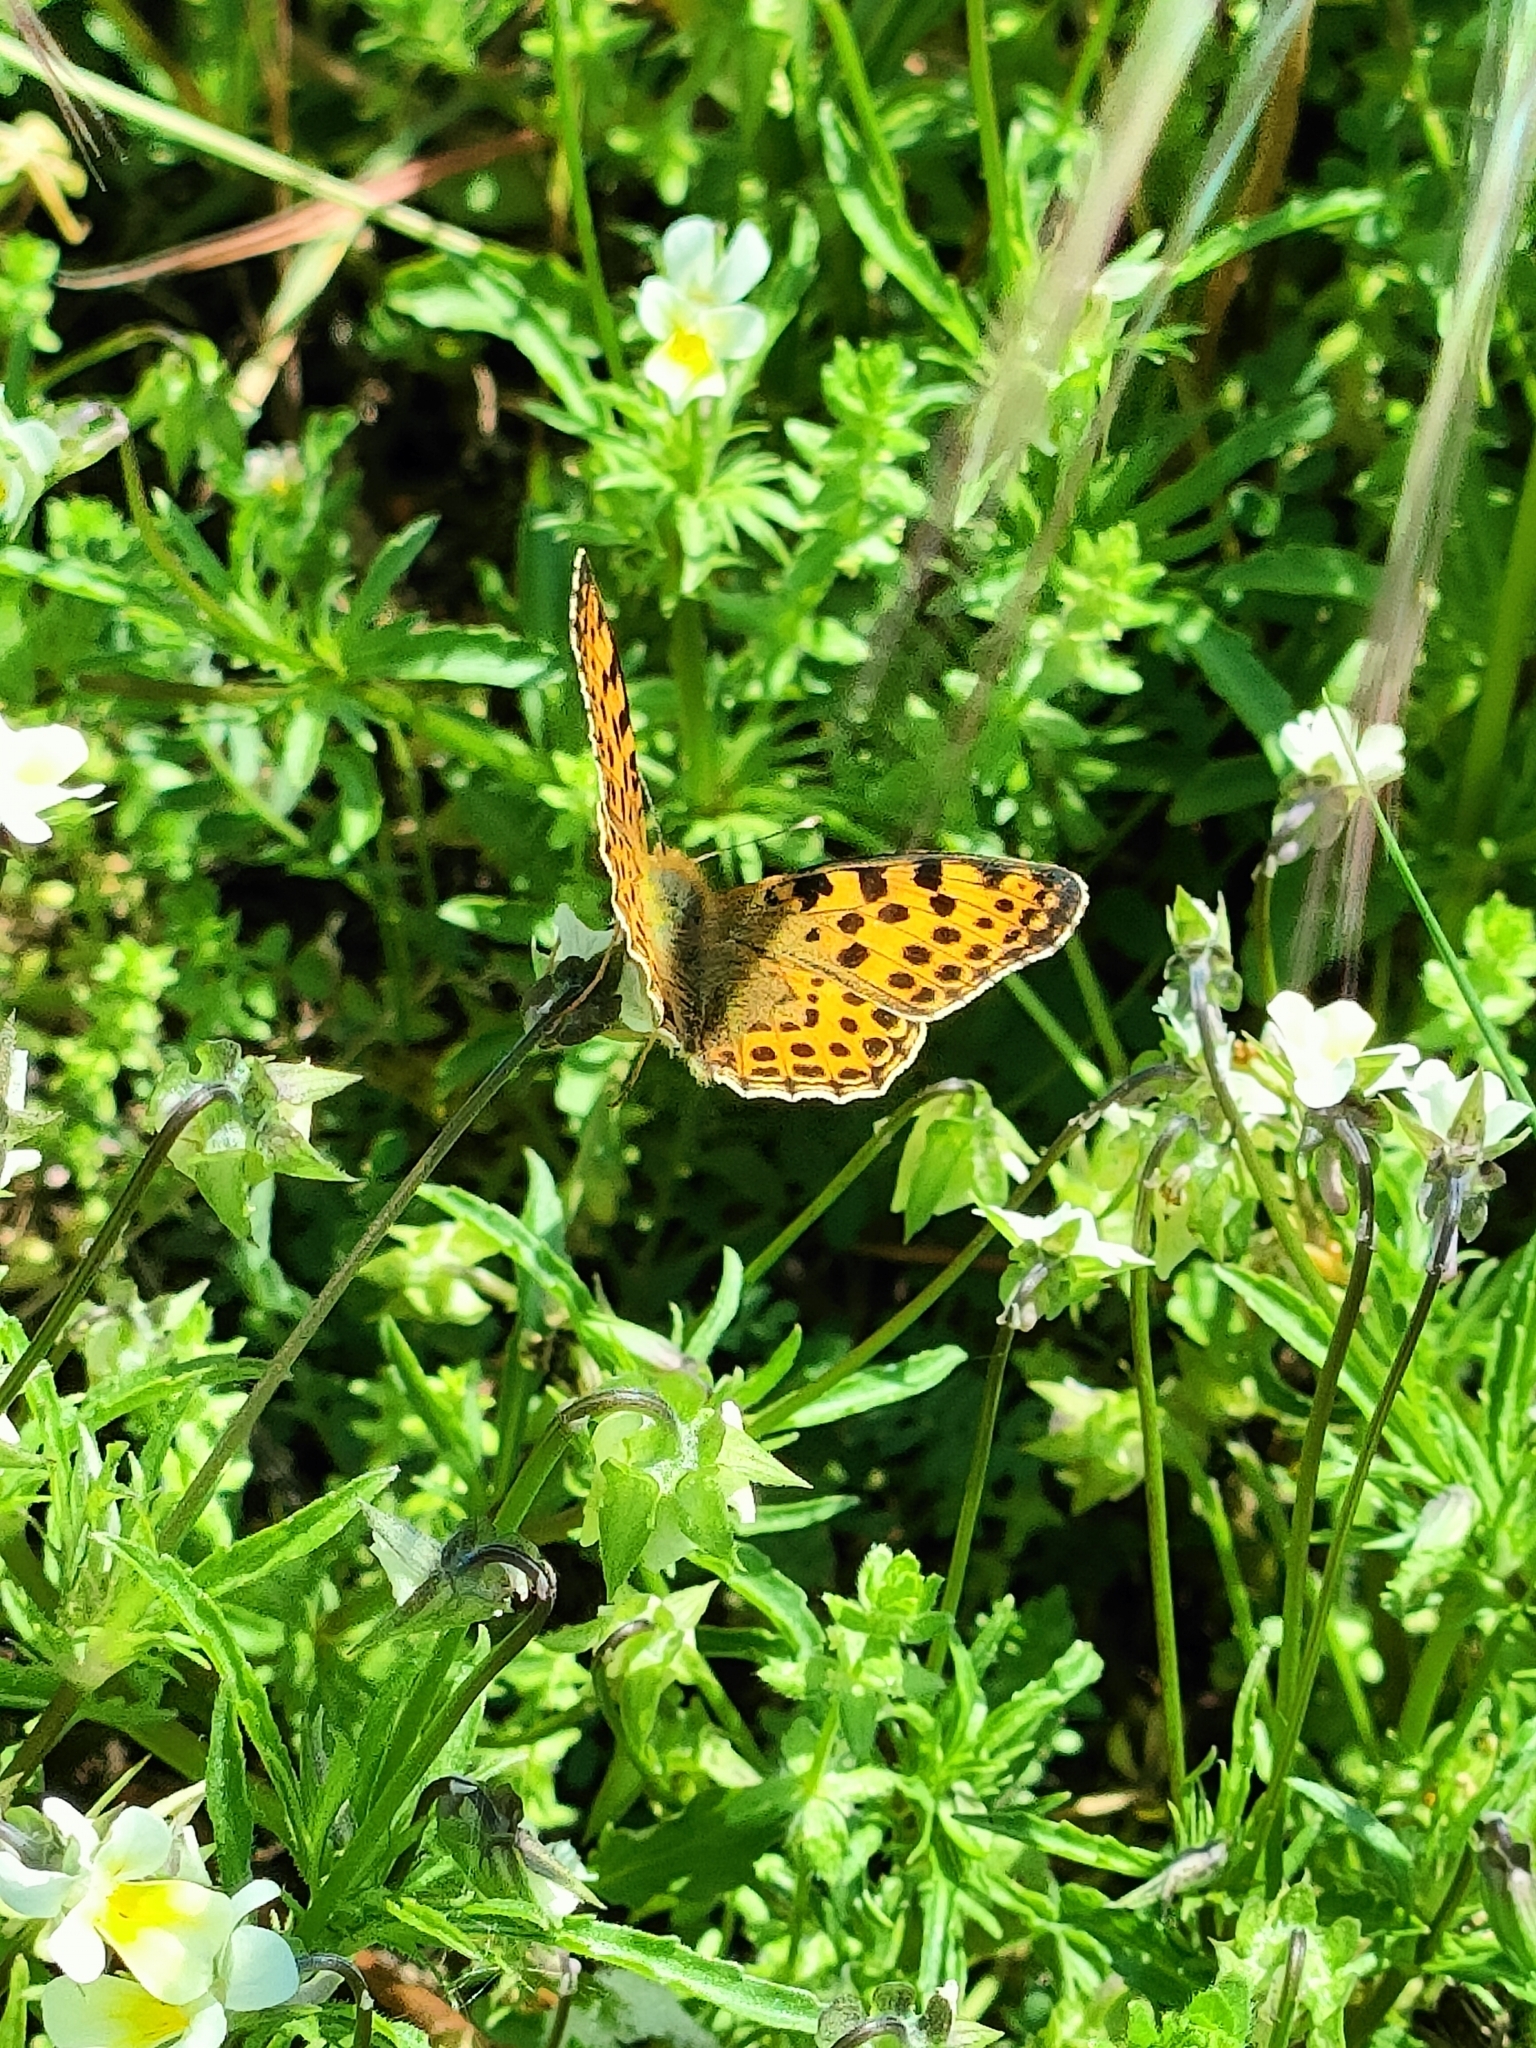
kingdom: Animalia
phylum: Arthropoda
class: Insecta
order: Lepidoptera
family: Nymphalidae
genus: Issoria
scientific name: Issoria lathonia
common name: Queen of spain fritillary
